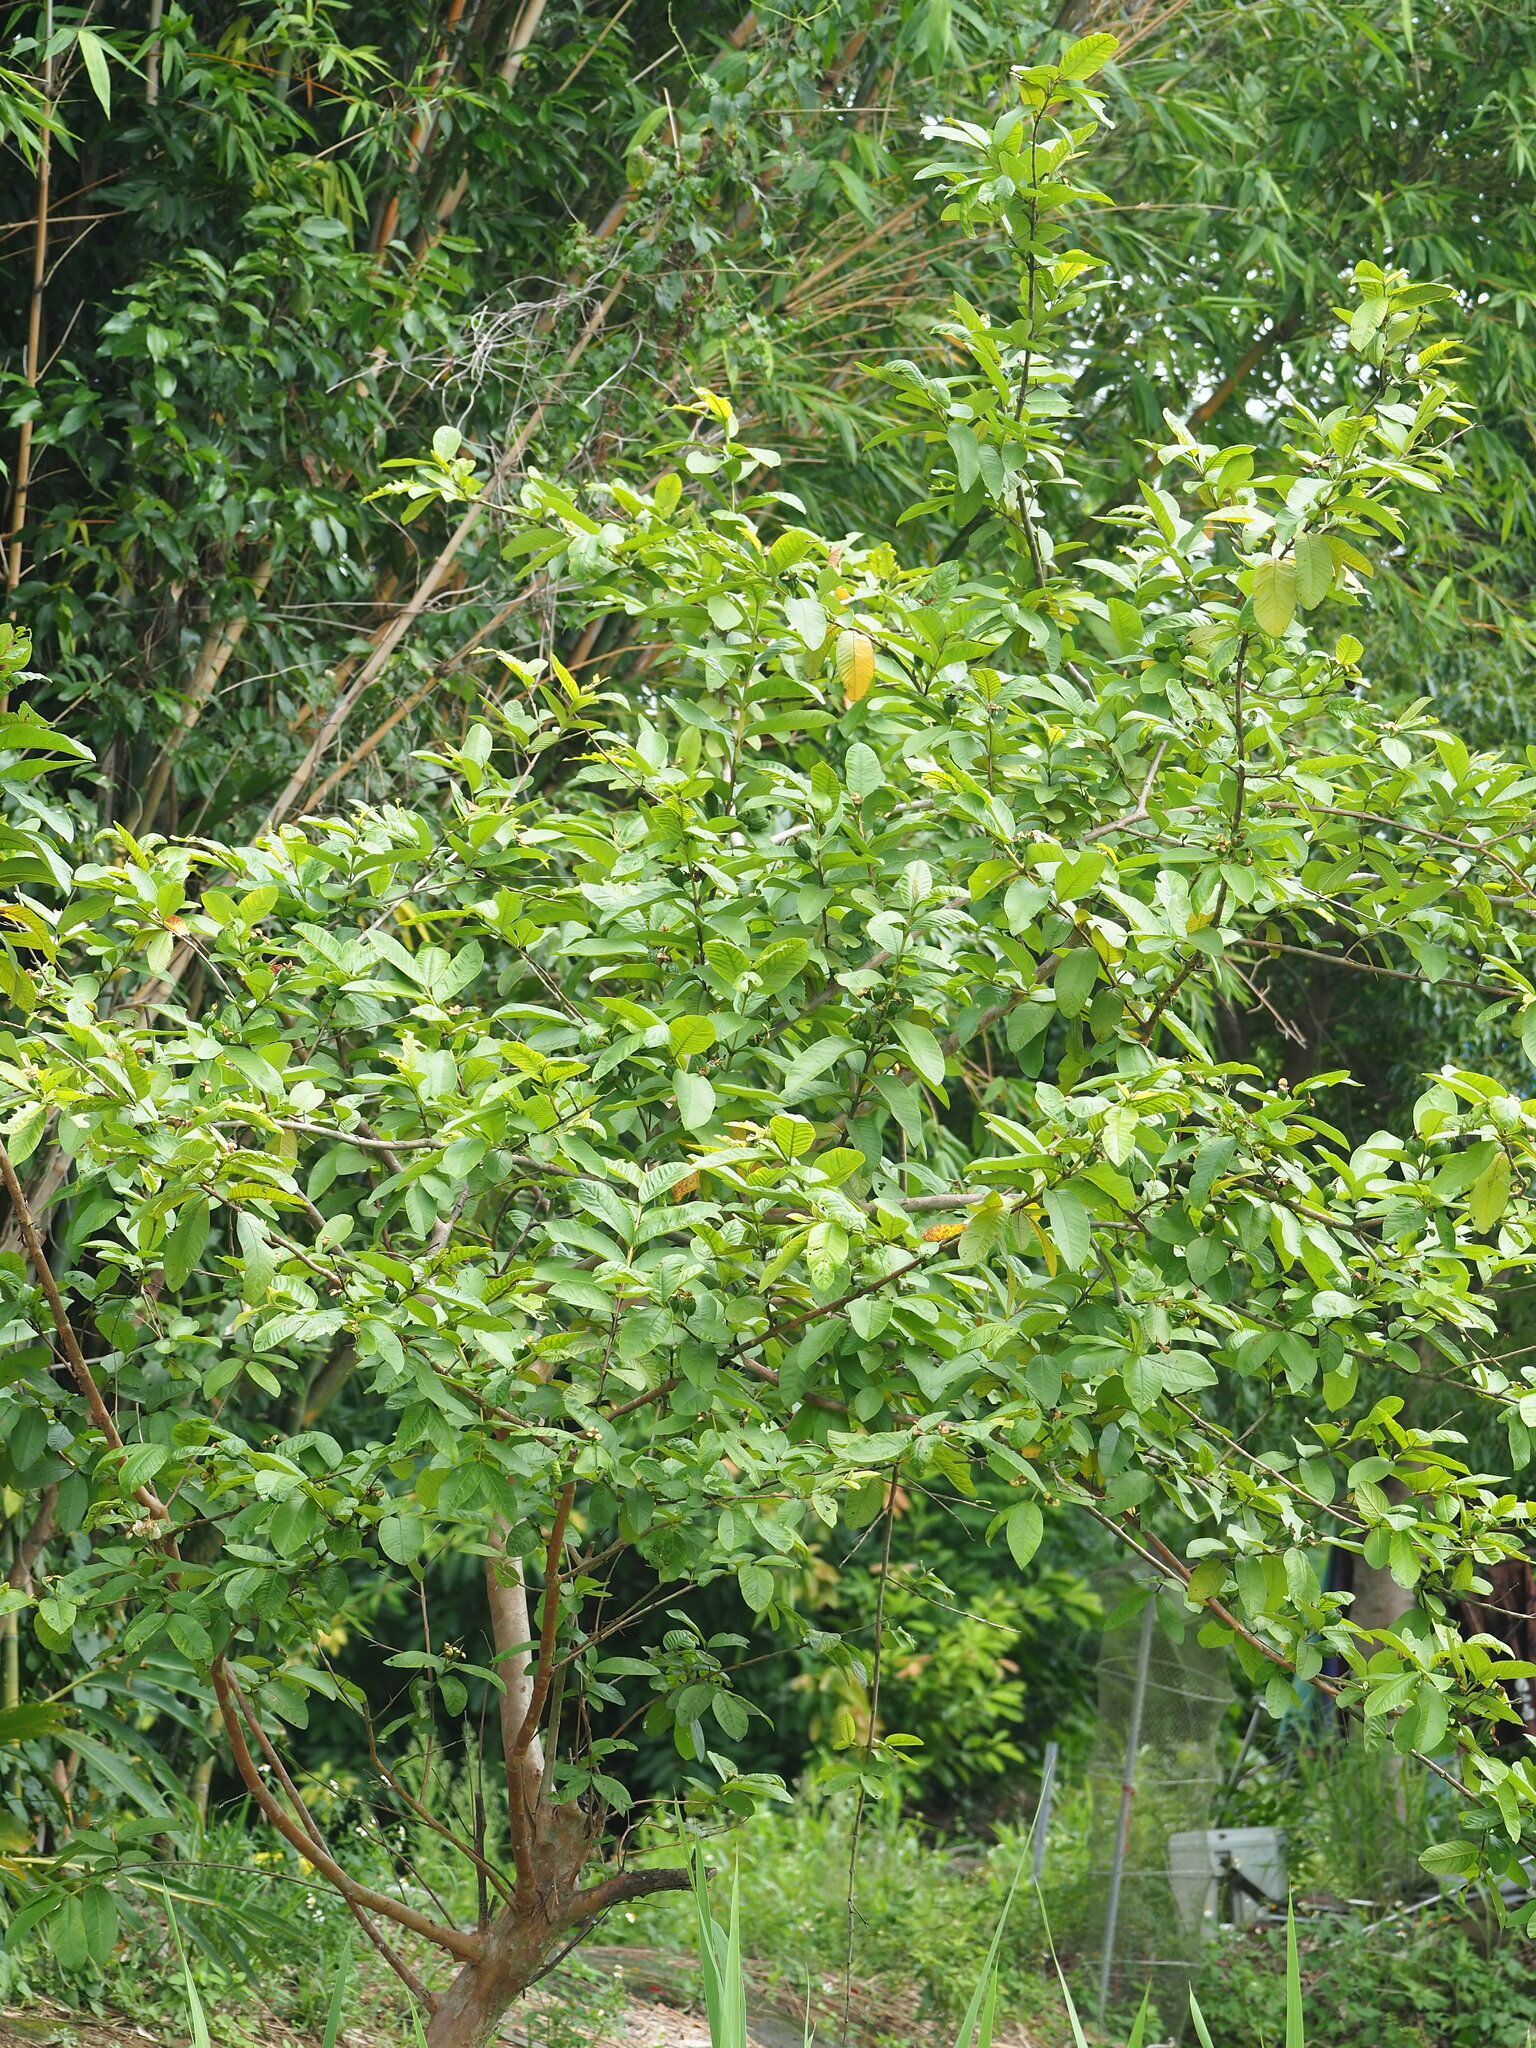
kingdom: Plantae
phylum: Tracheophyta
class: Magnoliopsida
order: Myrtales
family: Myrtaceae
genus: Psidium
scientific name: Psidium guajava
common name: Guava
